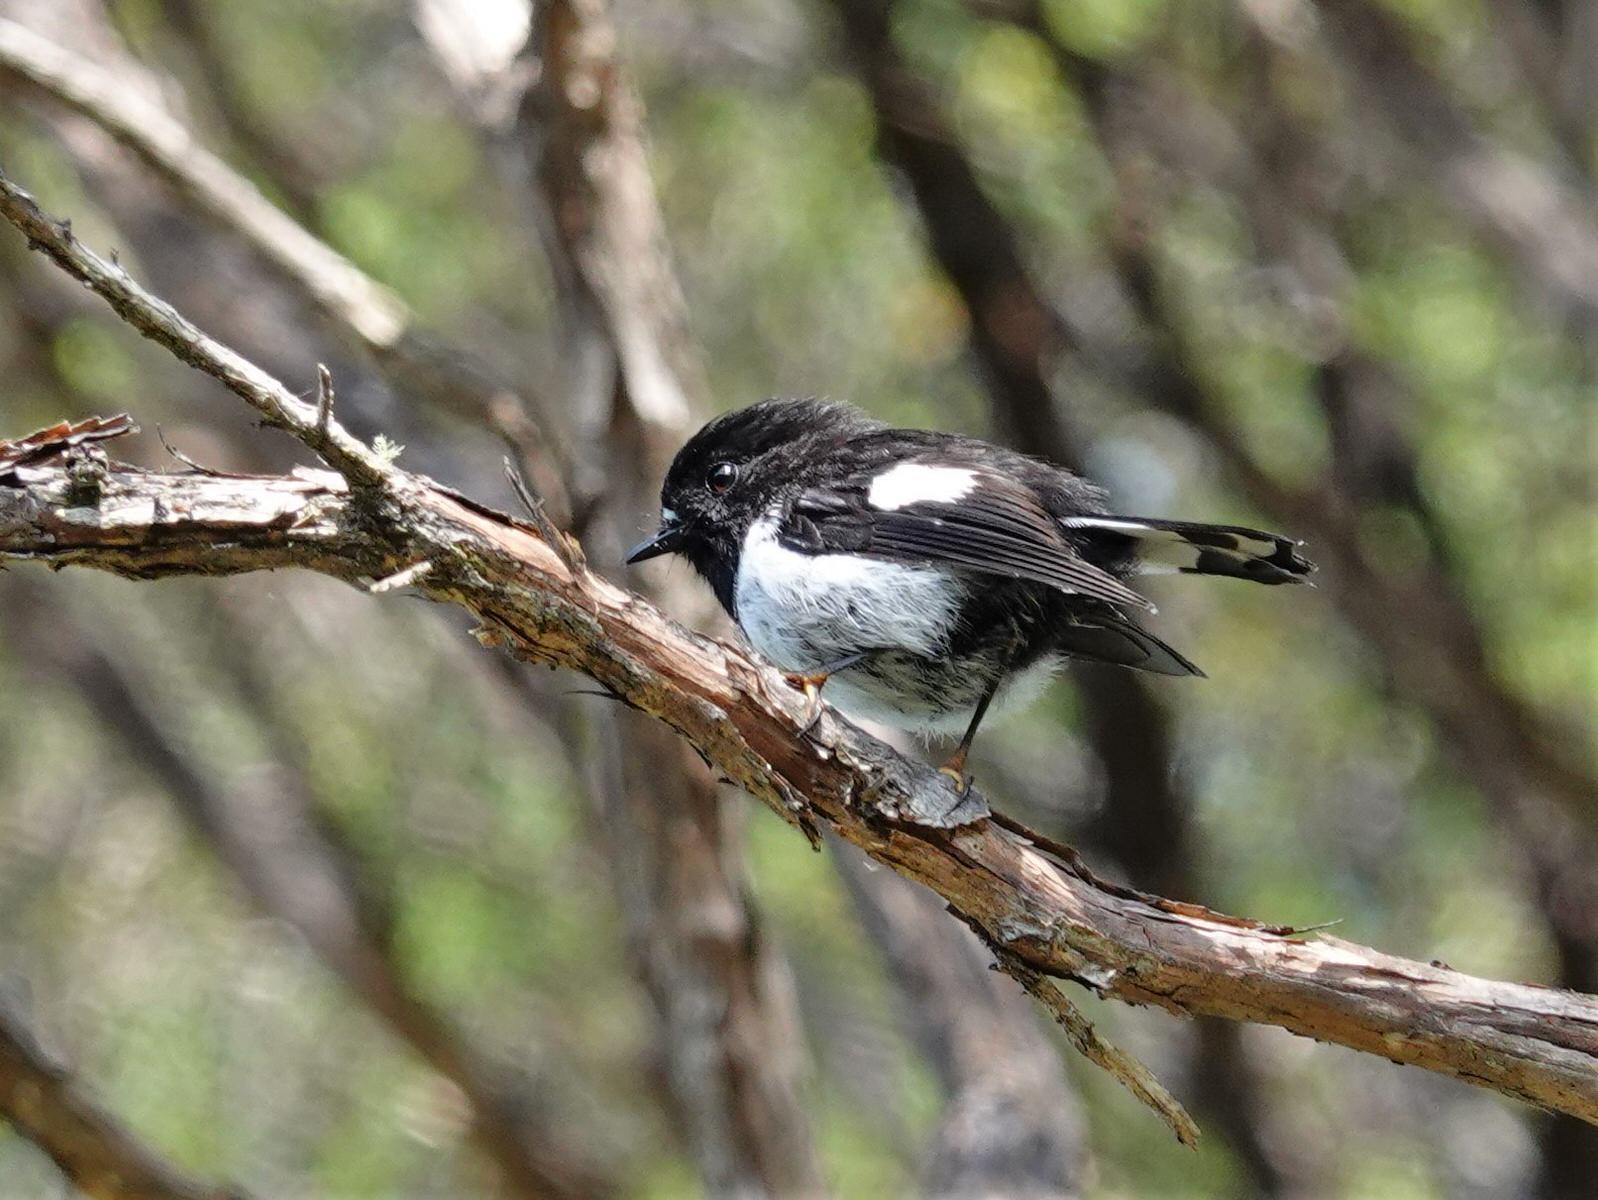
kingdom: Animalia
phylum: Chordata
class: Aves
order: Passeriformes
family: Petroicidae
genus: Petroica
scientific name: Petroica macrocephala
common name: Tomtit
